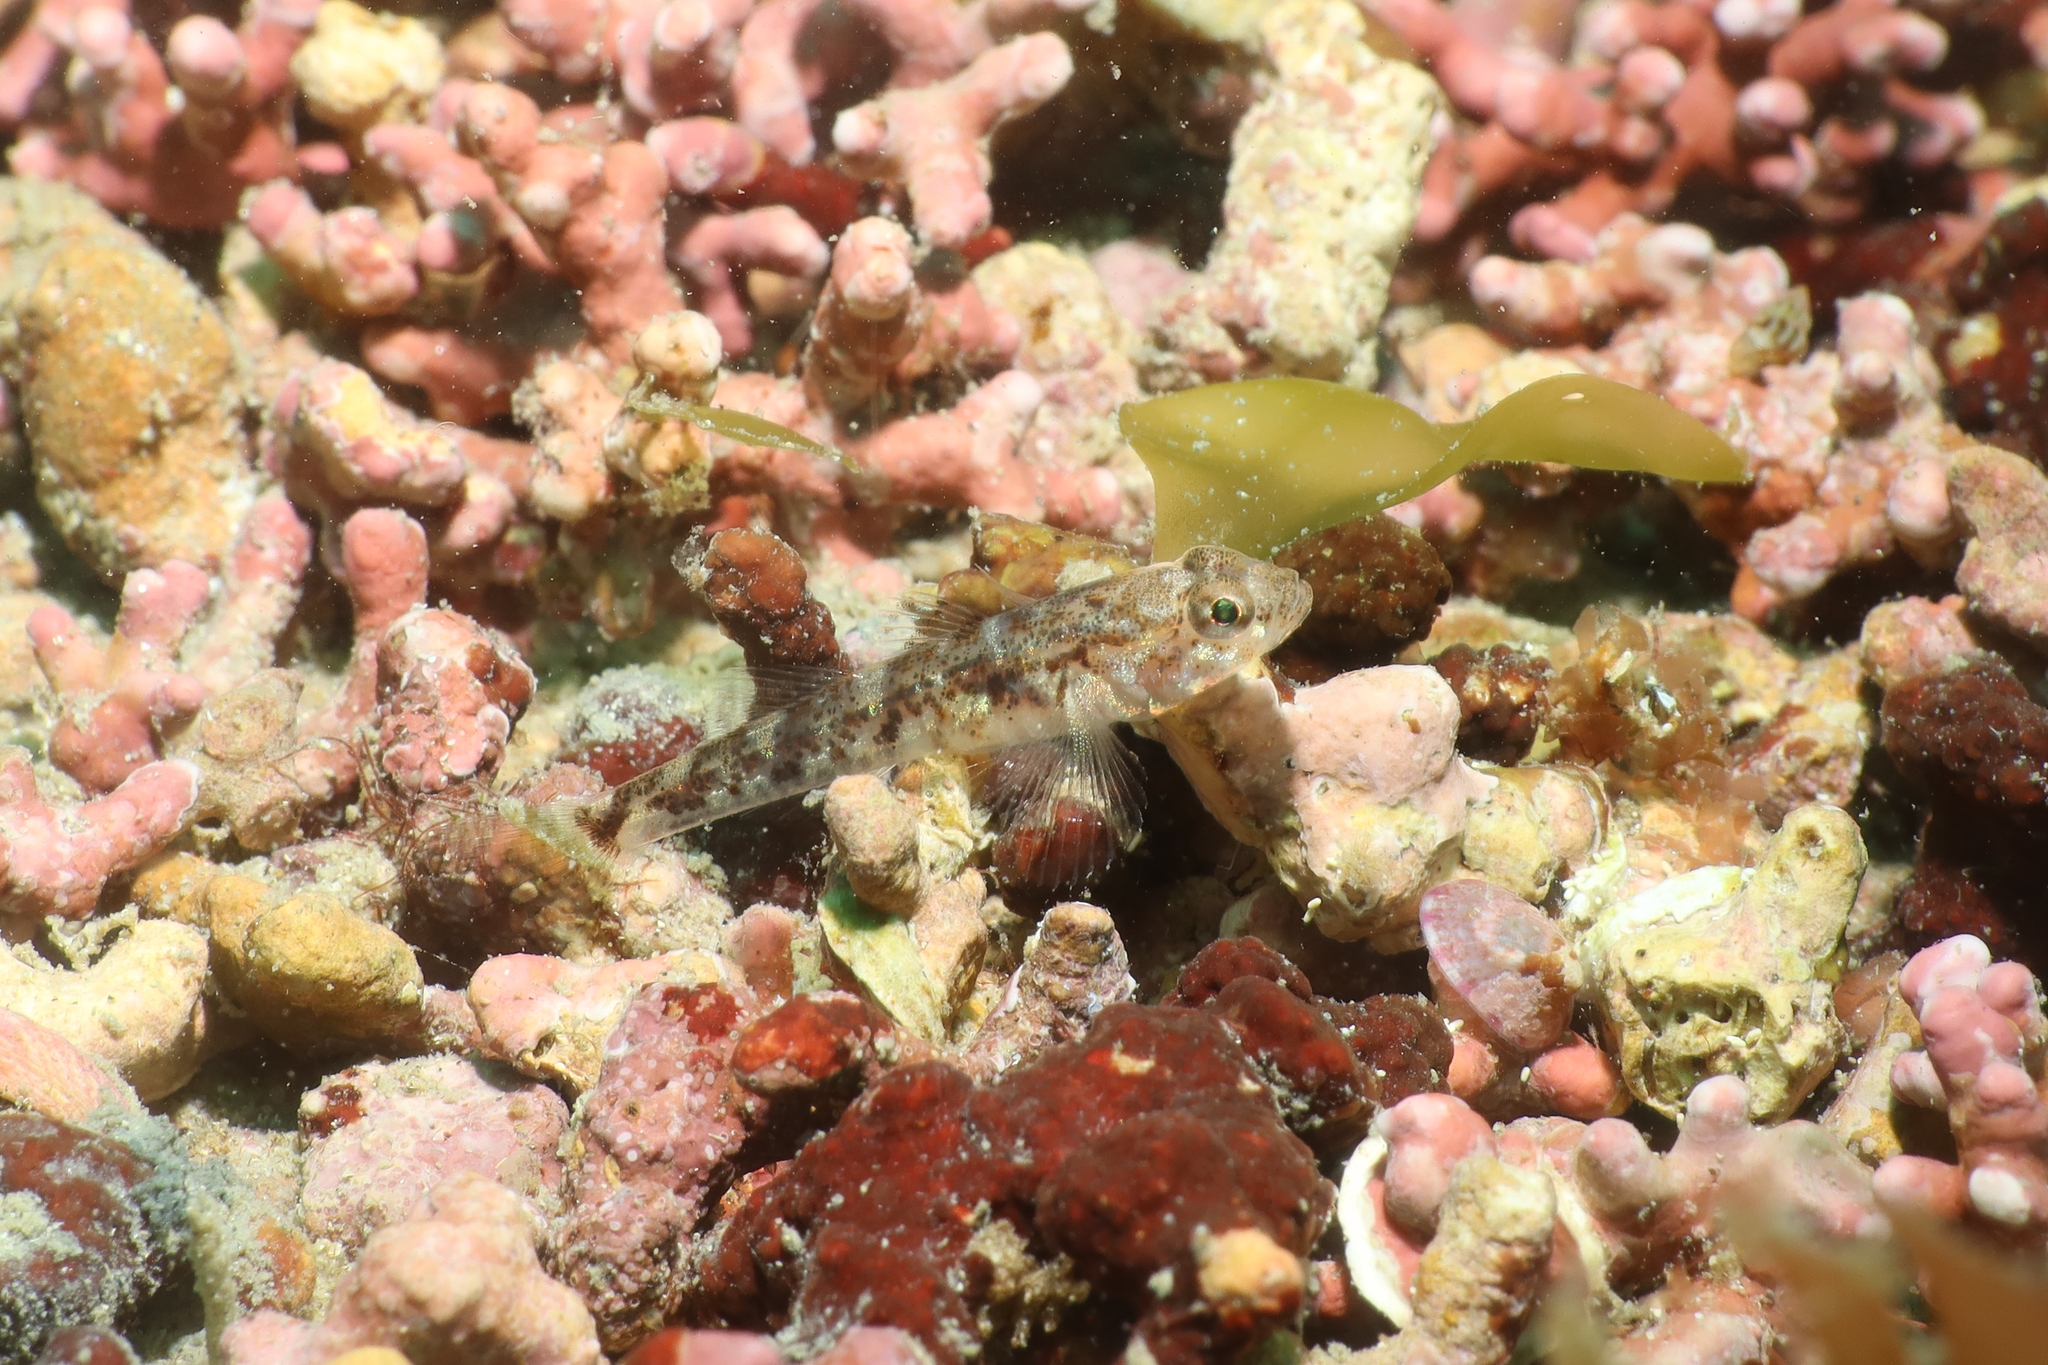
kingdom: Animalia
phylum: Chordata
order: Perciformes
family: Gobiidae
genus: Pomatoschistus
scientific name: Pomatoschistus pictus
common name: Painted goby
